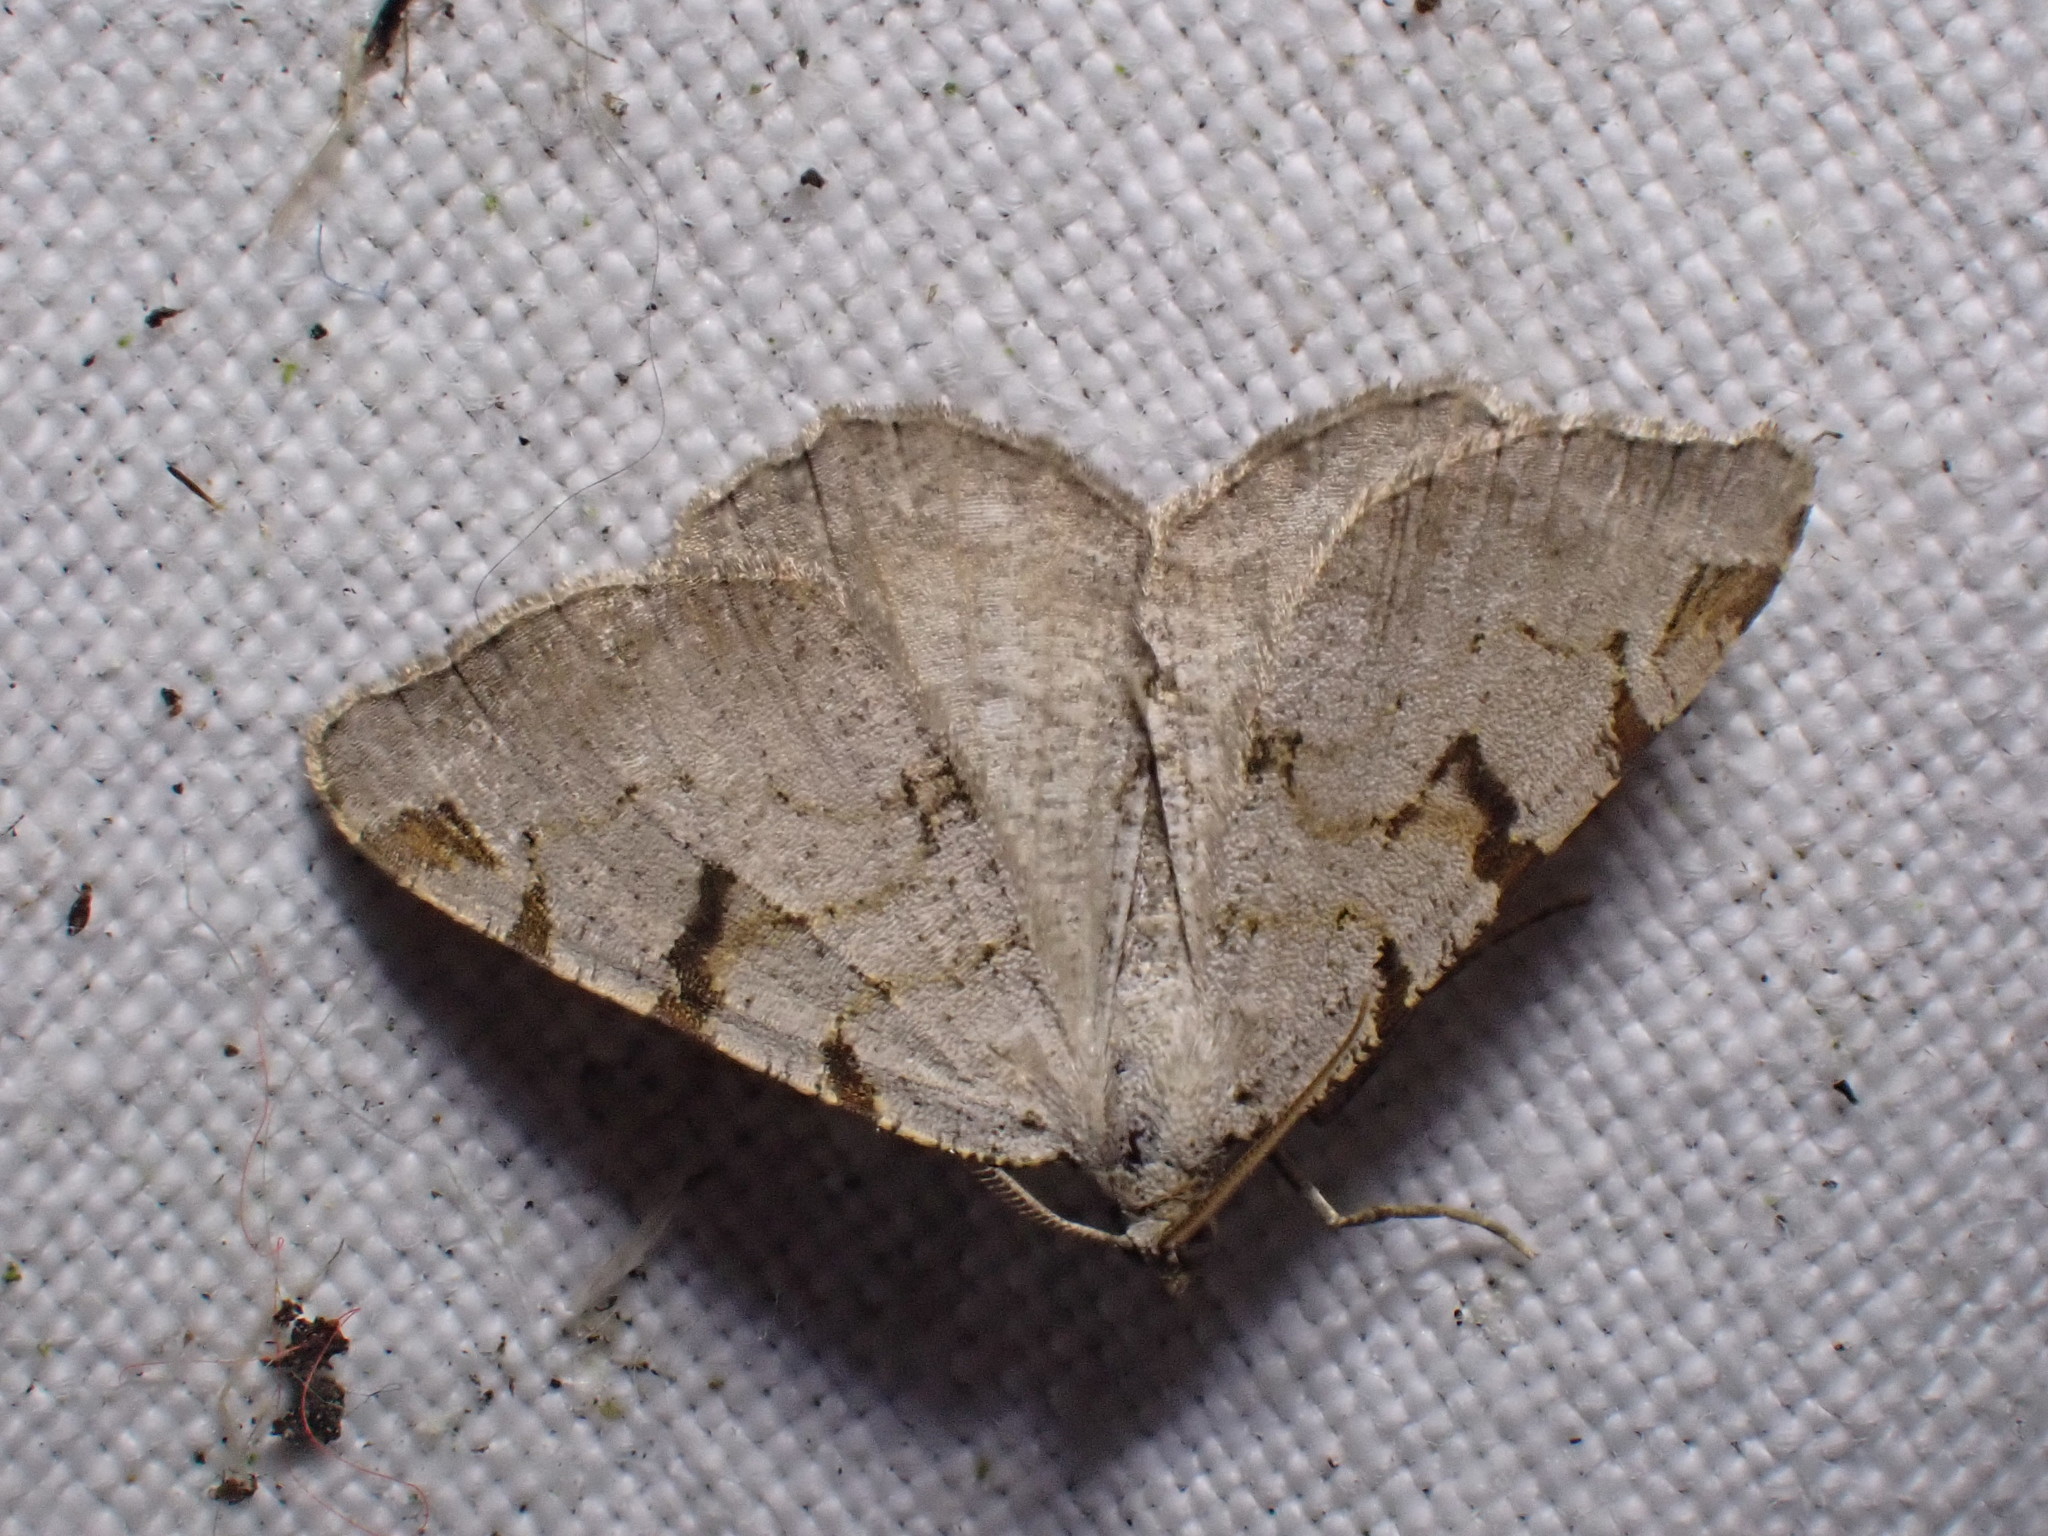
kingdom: Animalia
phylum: Arthropoda
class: Insecta
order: Lepidoptera
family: Geometridae
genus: Macaria
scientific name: Macaria wauaria
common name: V-moth
